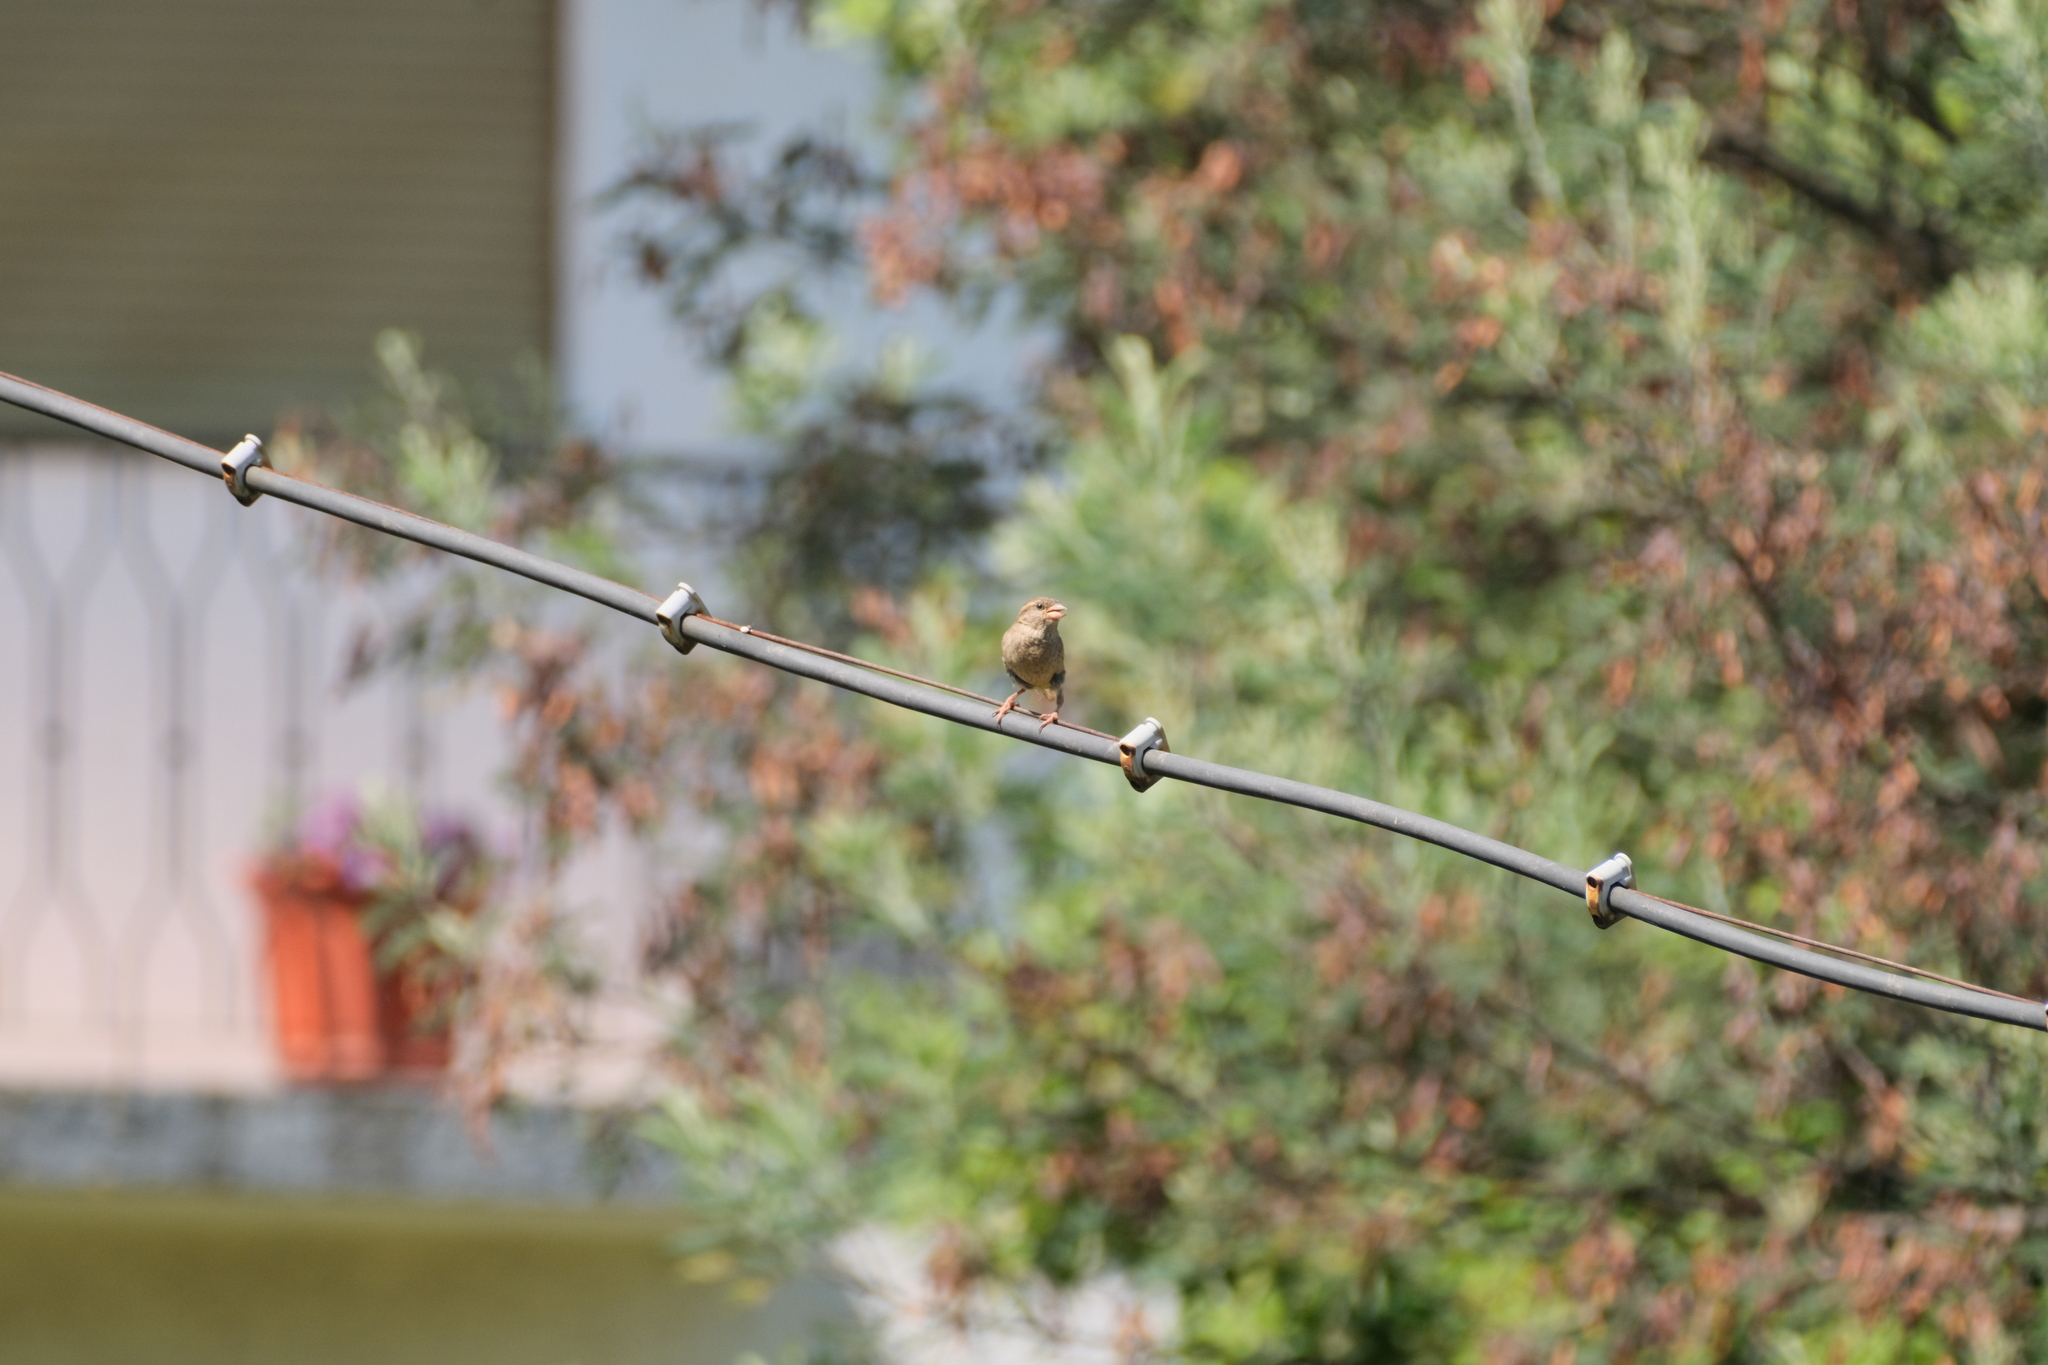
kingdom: Animalia
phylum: Chordata
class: Aves
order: Passeriformes
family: Passeridae
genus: Passer
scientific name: Passer domesticus
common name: House sparrow
